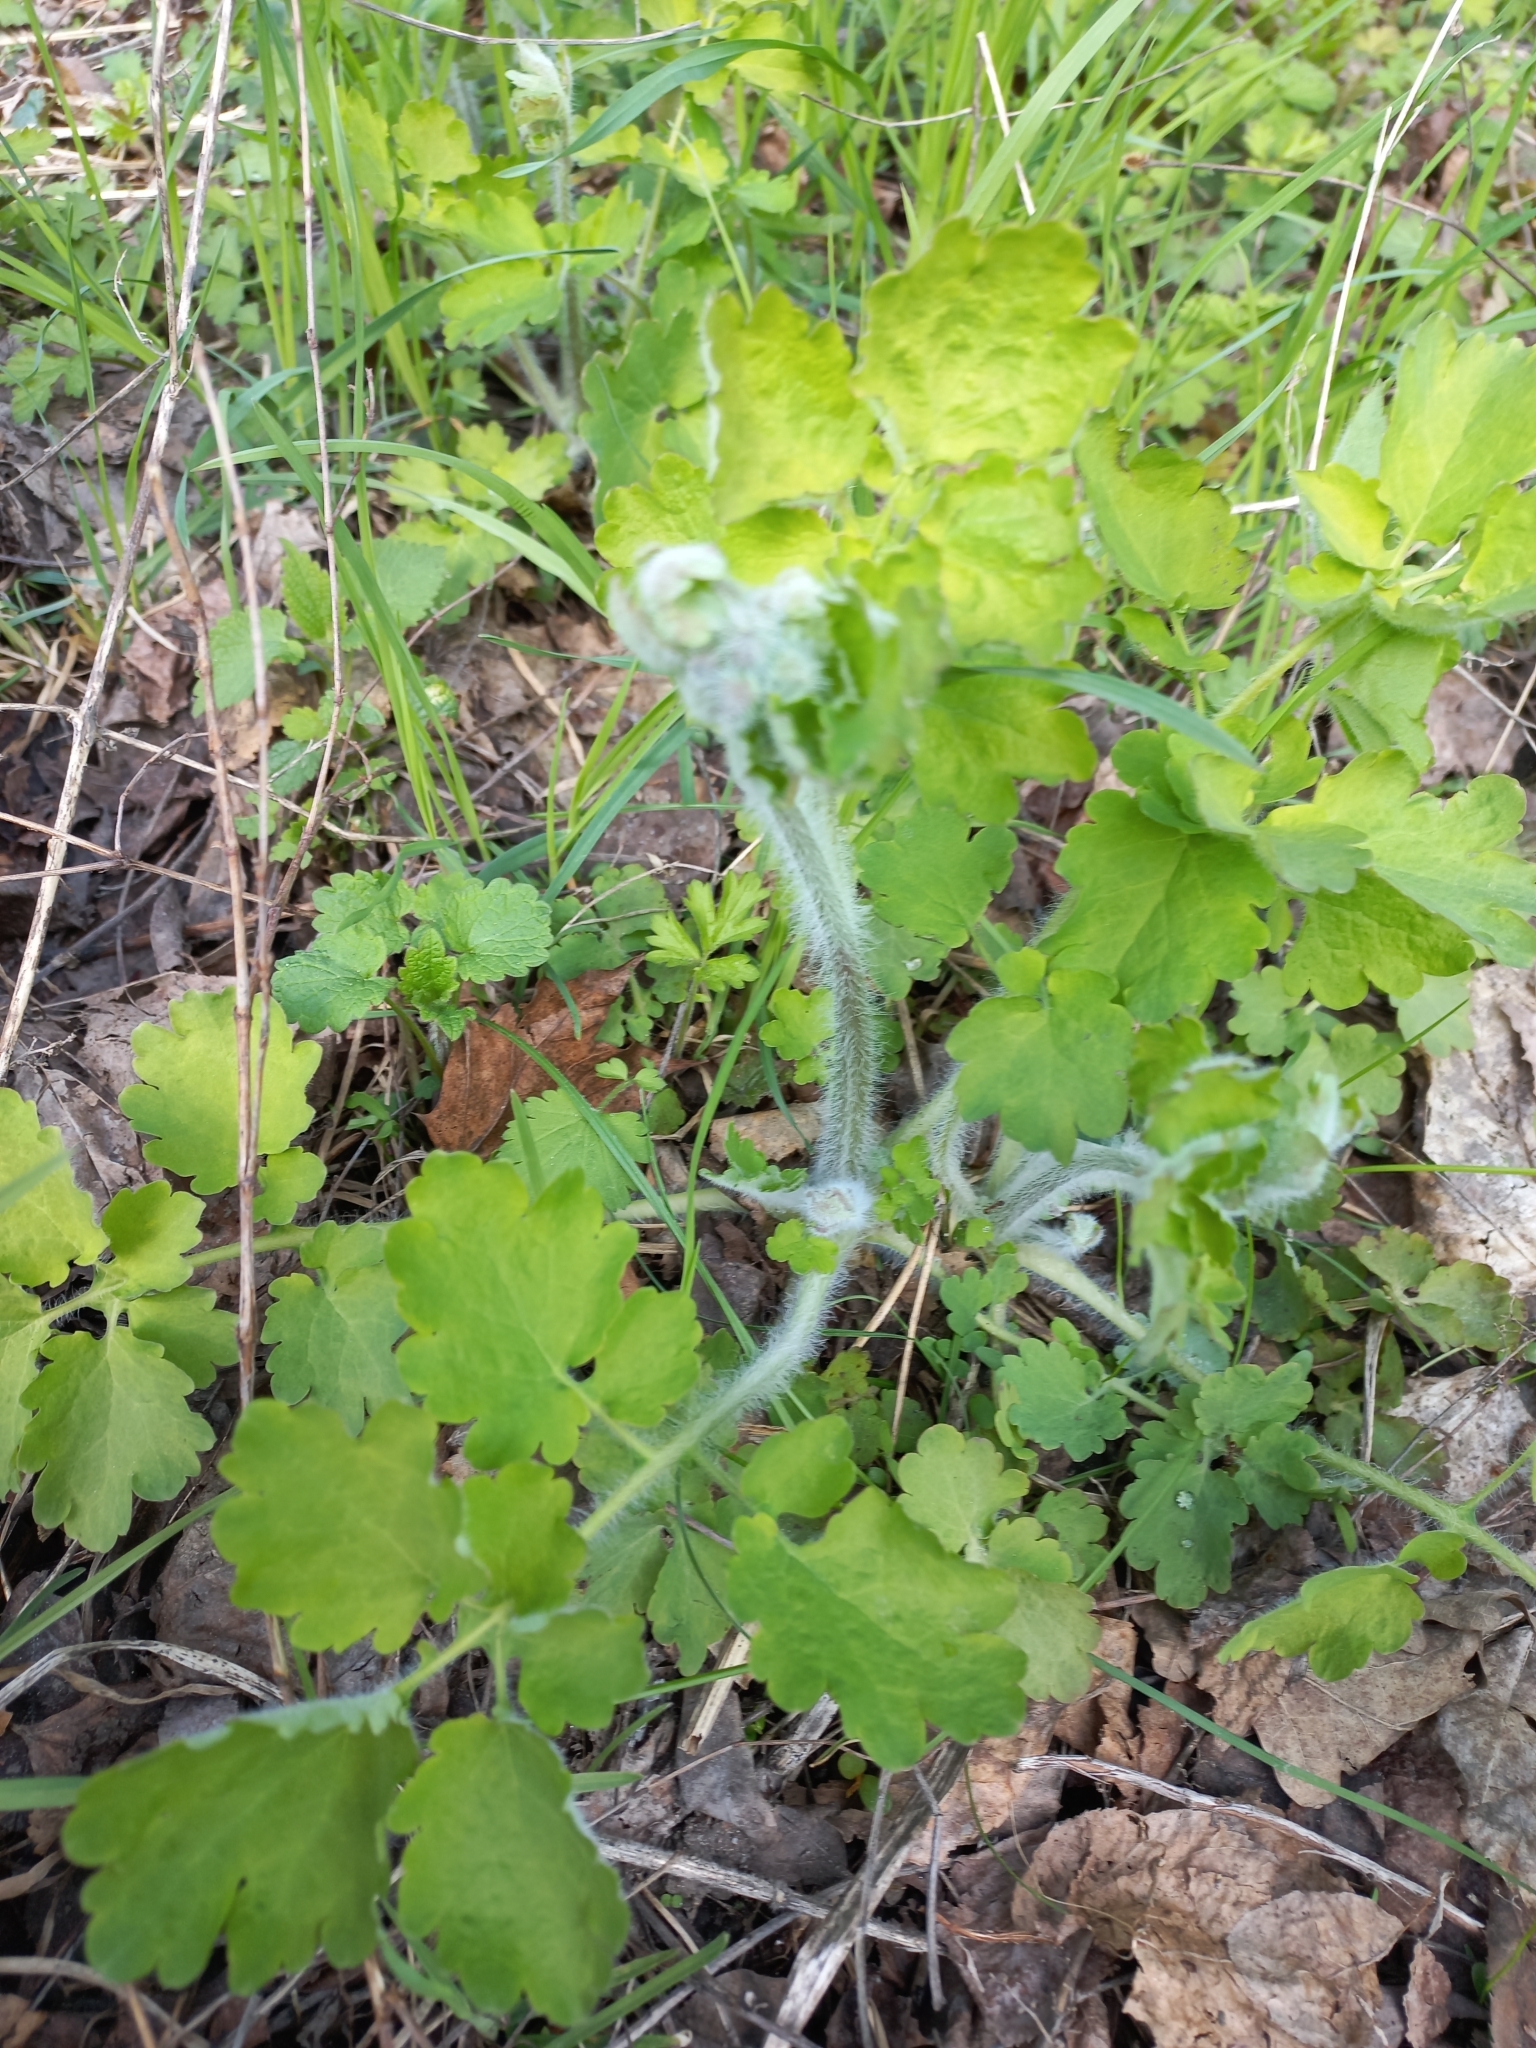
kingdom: Plantae
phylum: Tracheophyta
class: Magnoliopsida
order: Ranunculales
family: Papaveraceae
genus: Chelidonium
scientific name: Chelidonium majus
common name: Greater celandine
